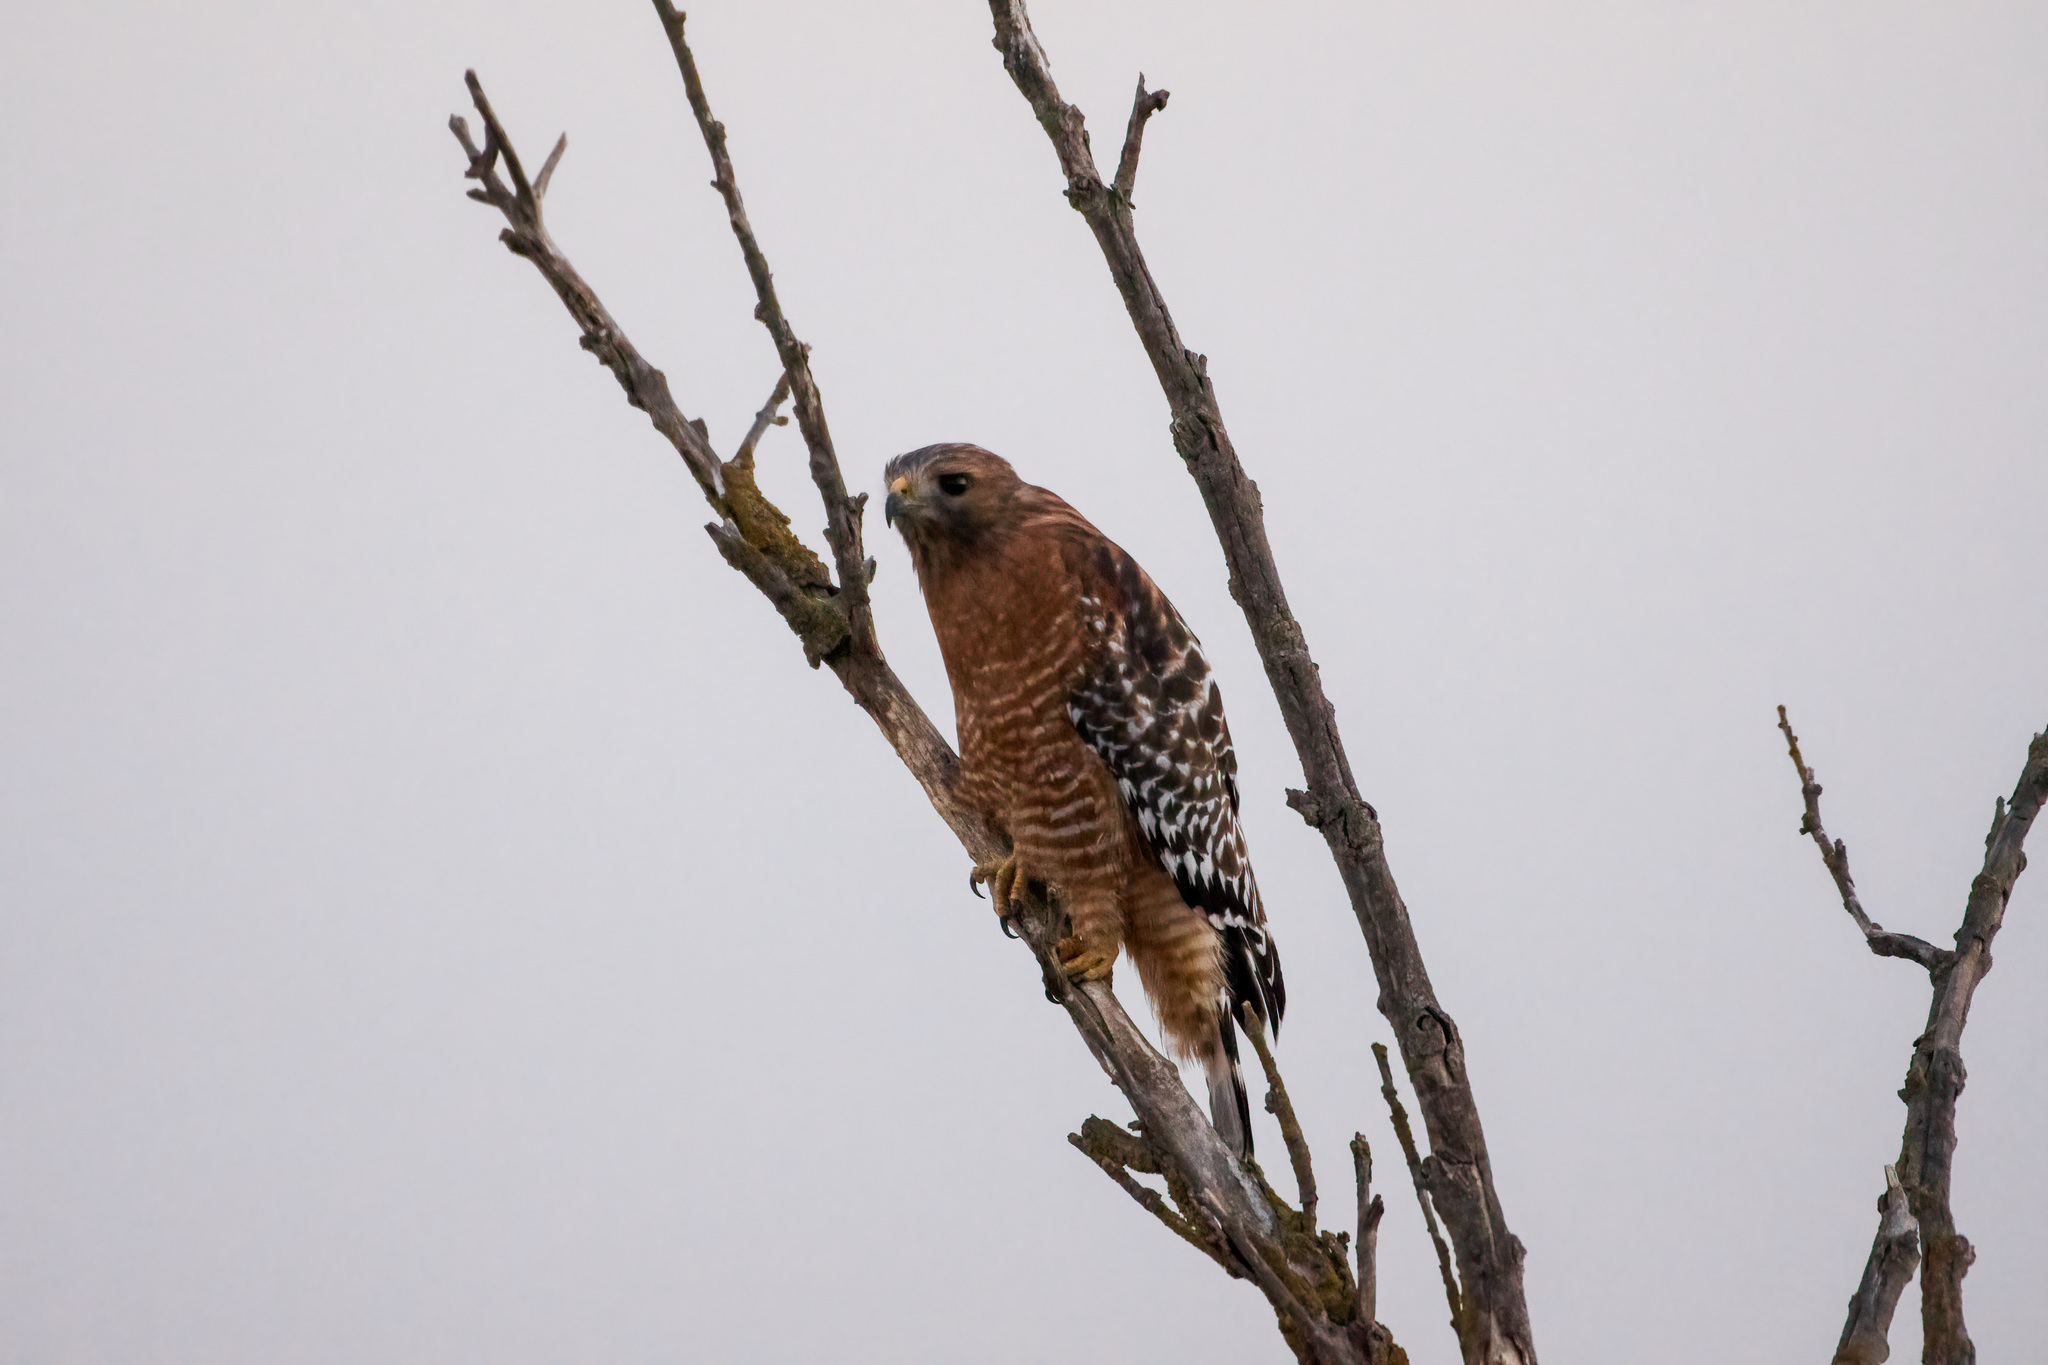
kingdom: Animalia
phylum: Chordata
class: Aves
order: Accipitriformes
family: Accipitridae
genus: Buteo
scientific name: Buteo lineatus
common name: Red-shouldered hawk
